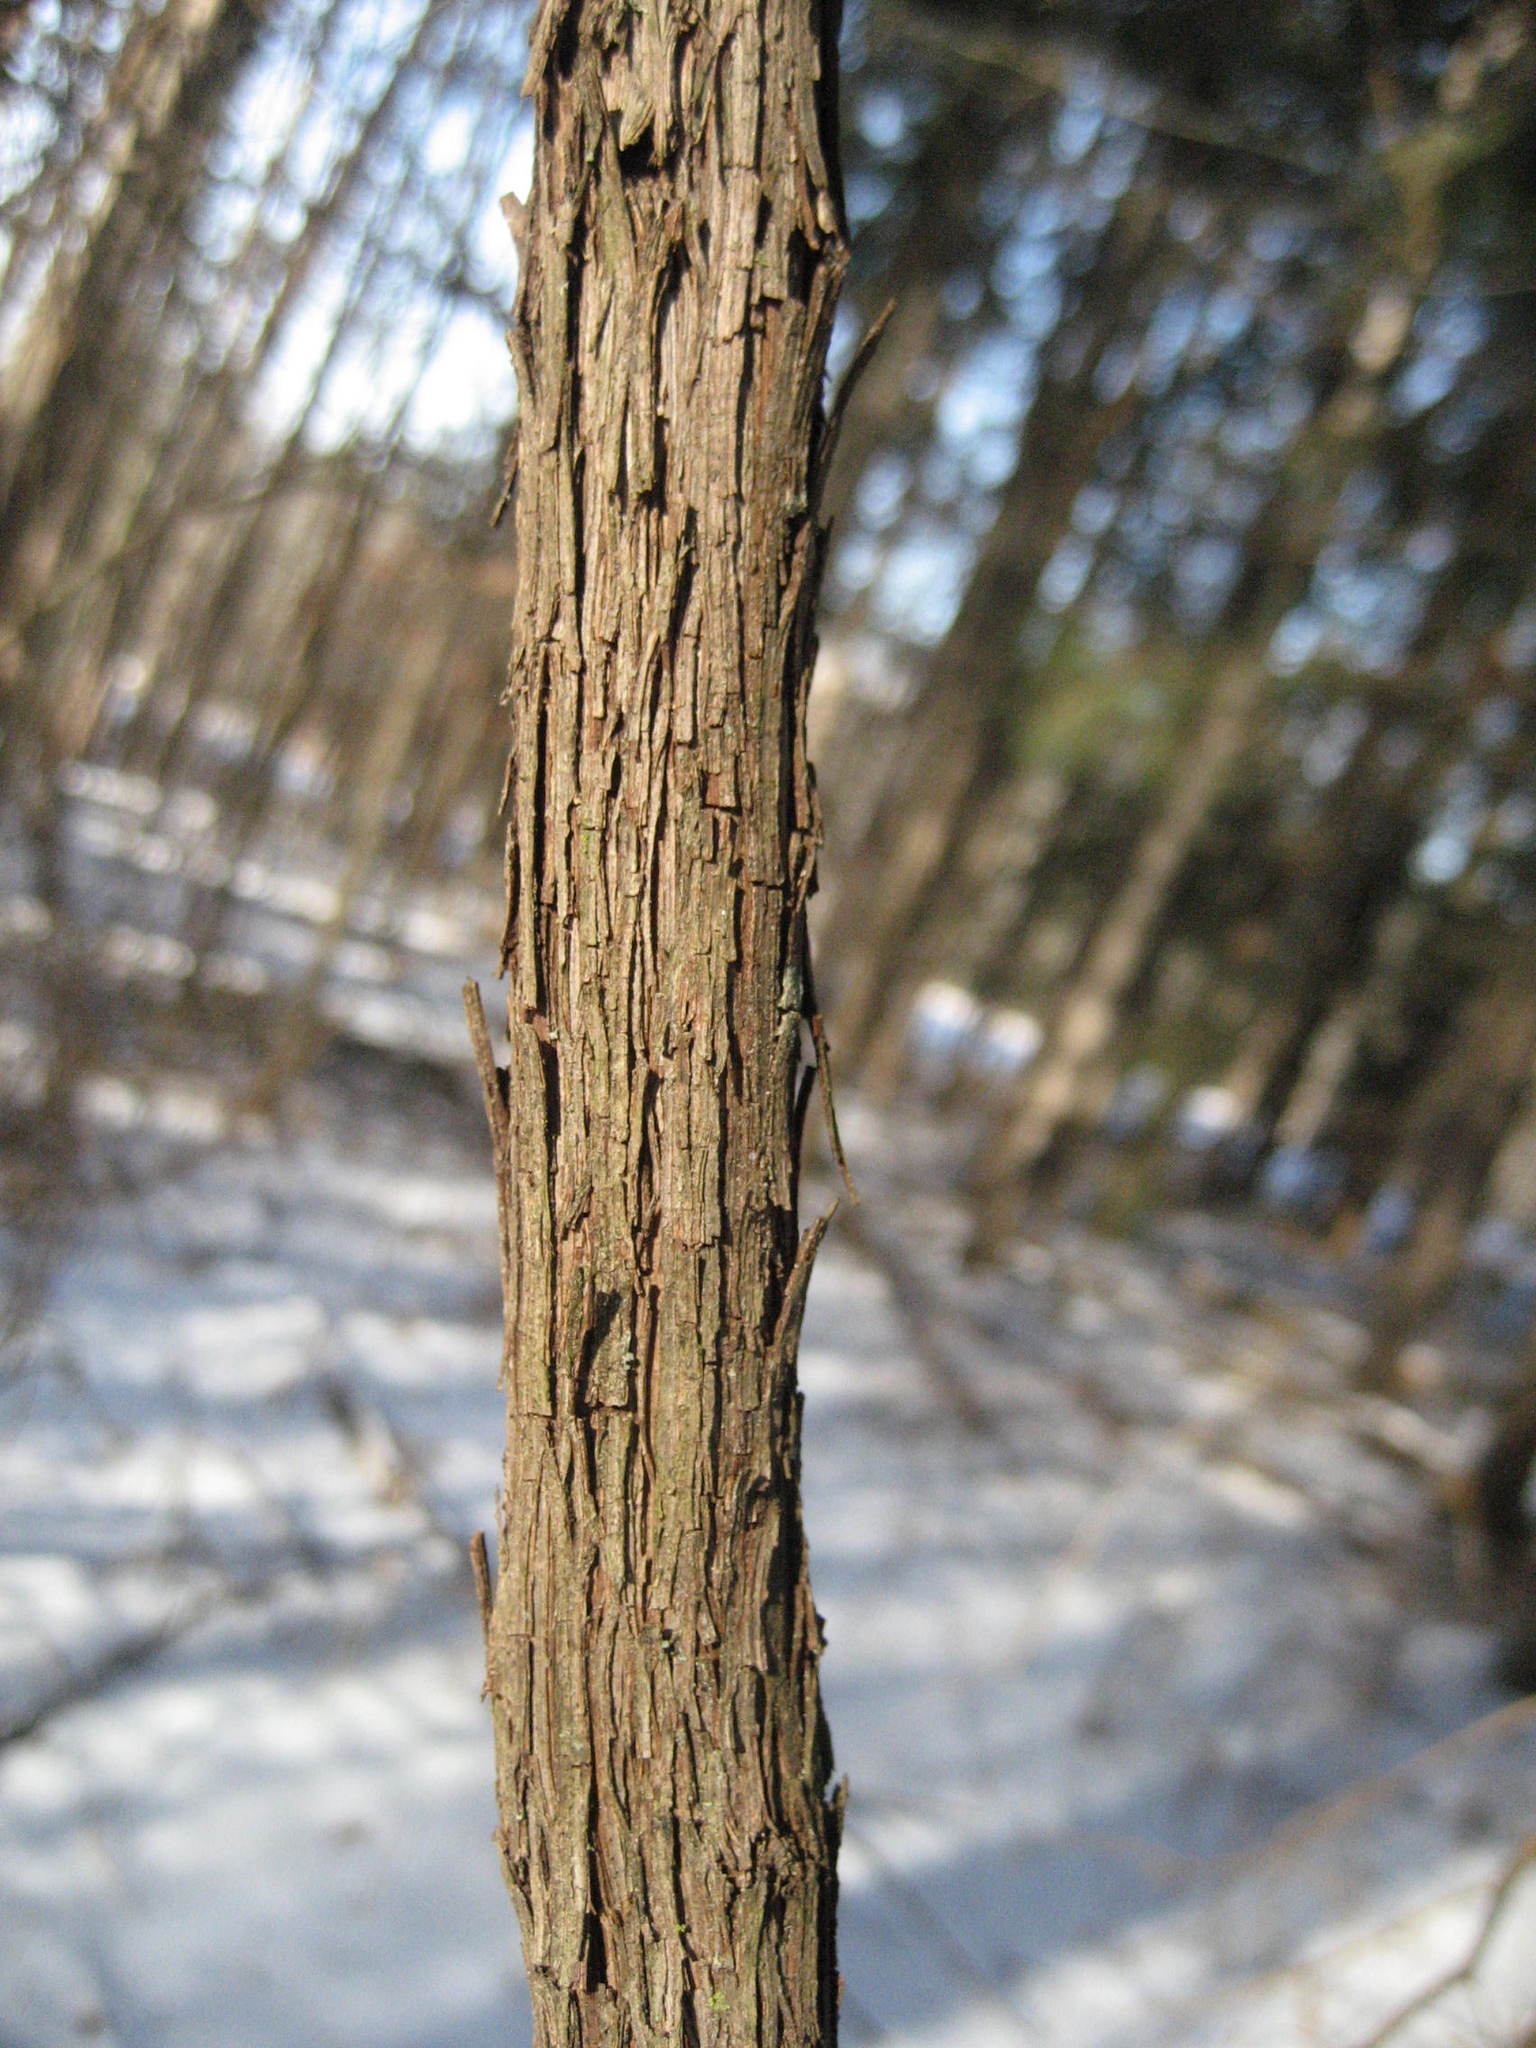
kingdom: Plantae
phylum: Tracheophyta
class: Magnoliopsida
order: Vitales
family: Vitaceae
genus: Vitis
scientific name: Vitis riparia
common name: Frost grape
